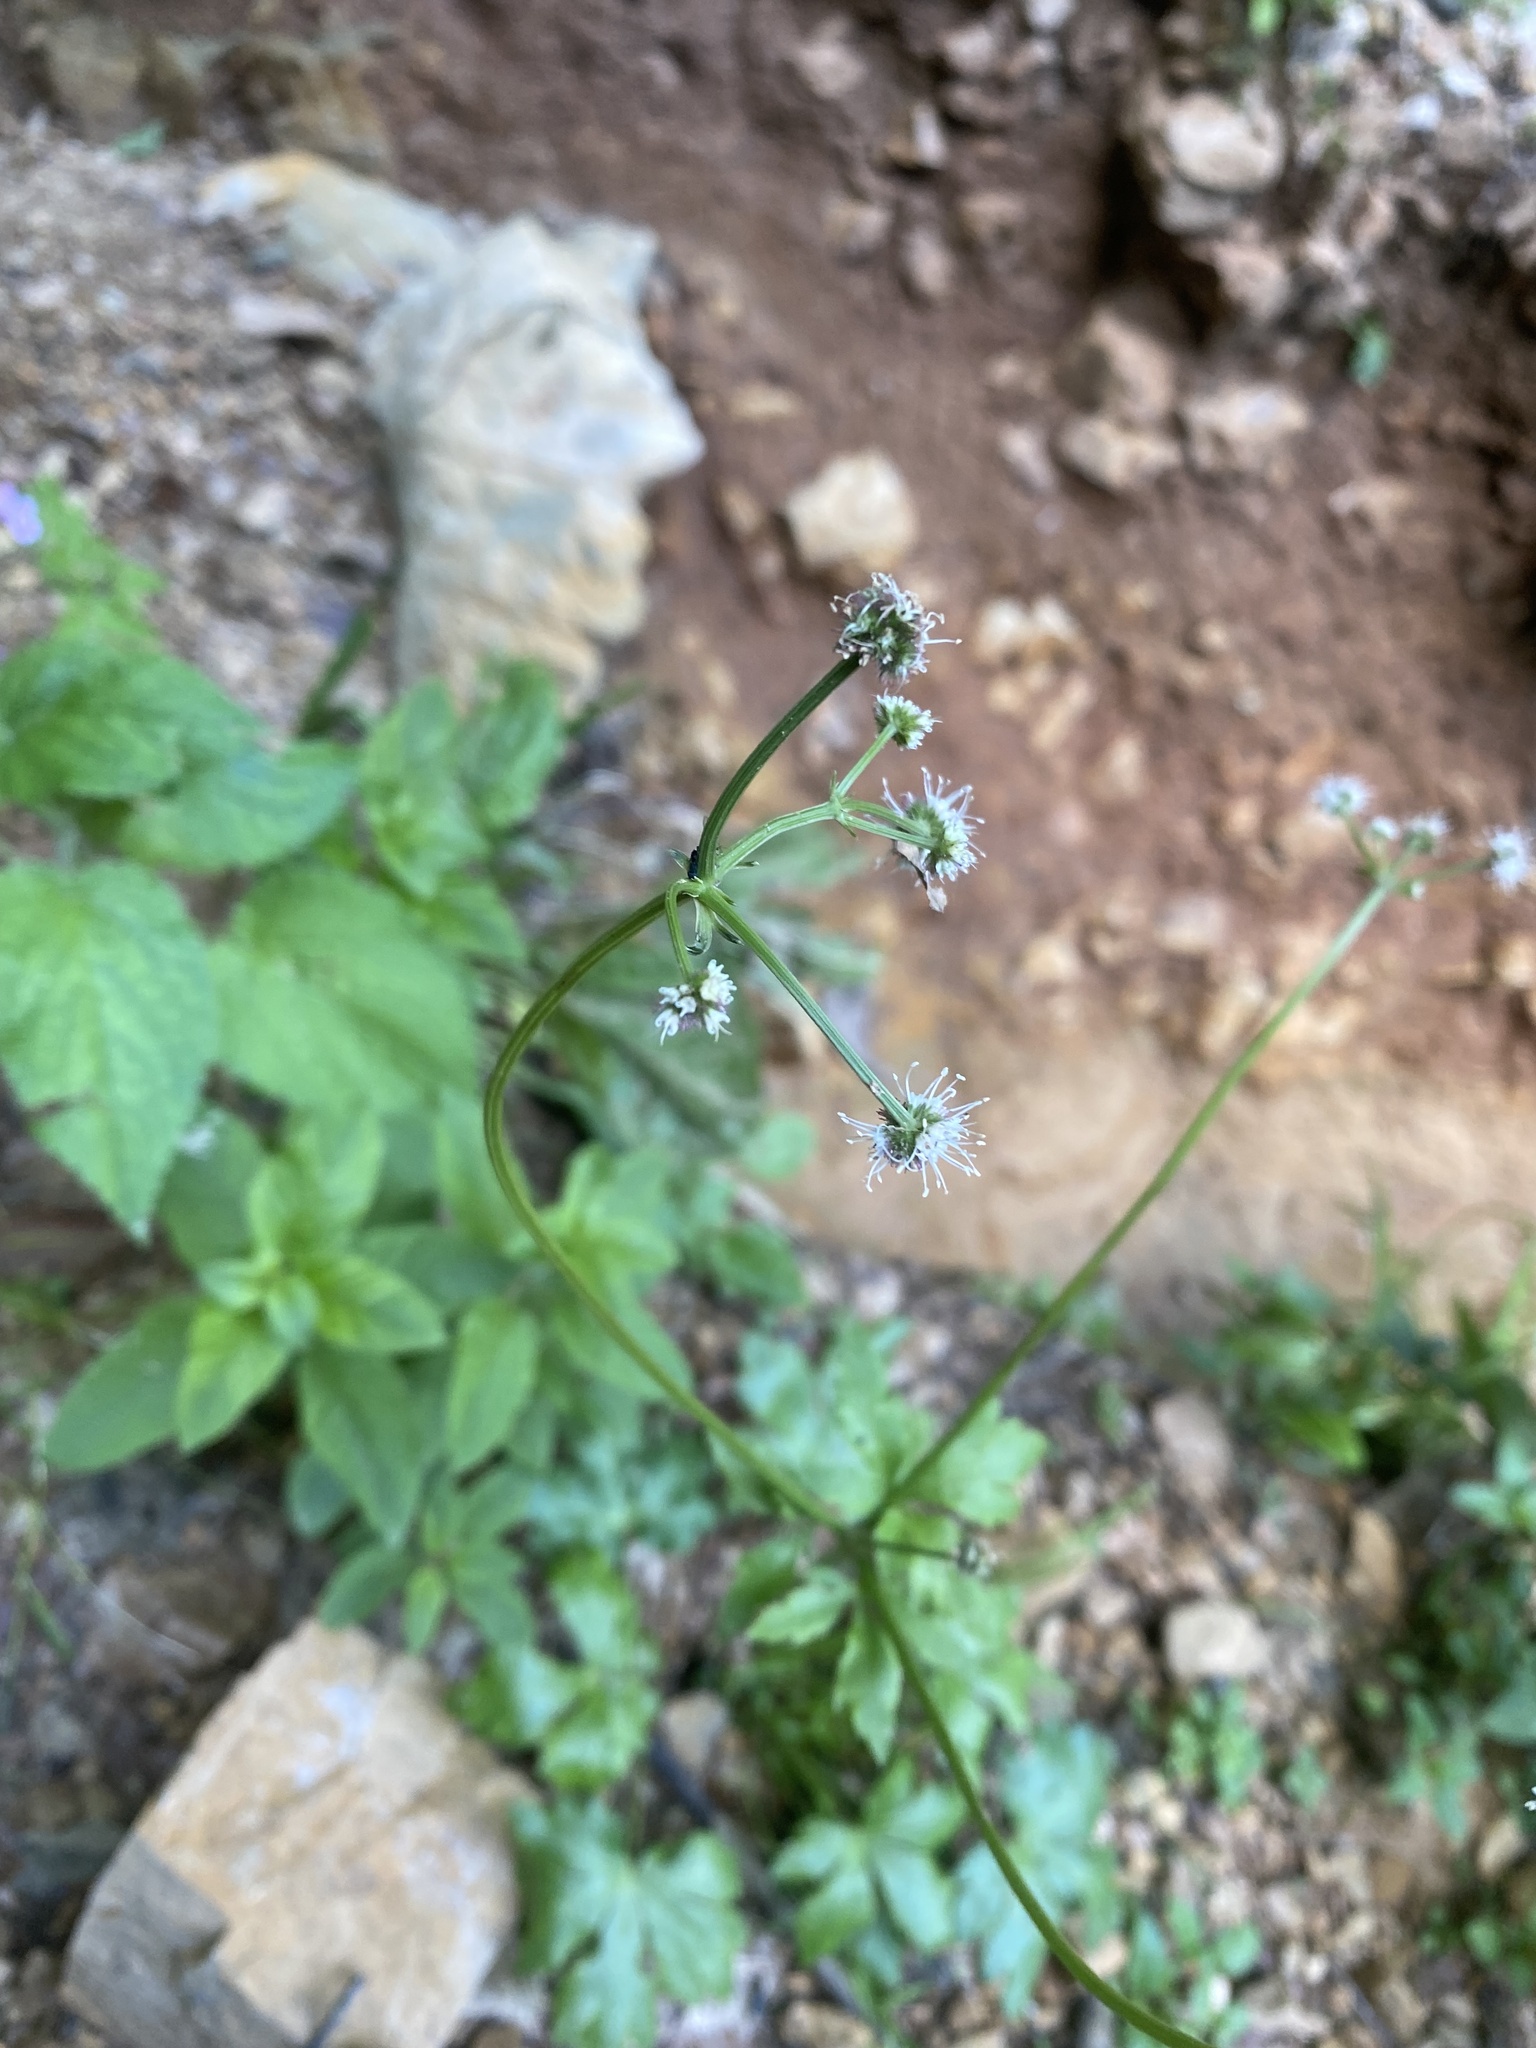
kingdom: Plantae
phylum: Tracheophyta
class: Magnoliopsida
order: Apiales
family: Apiaceae
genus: Sanicula
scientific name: Sanicula europaea
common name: Sanicle
